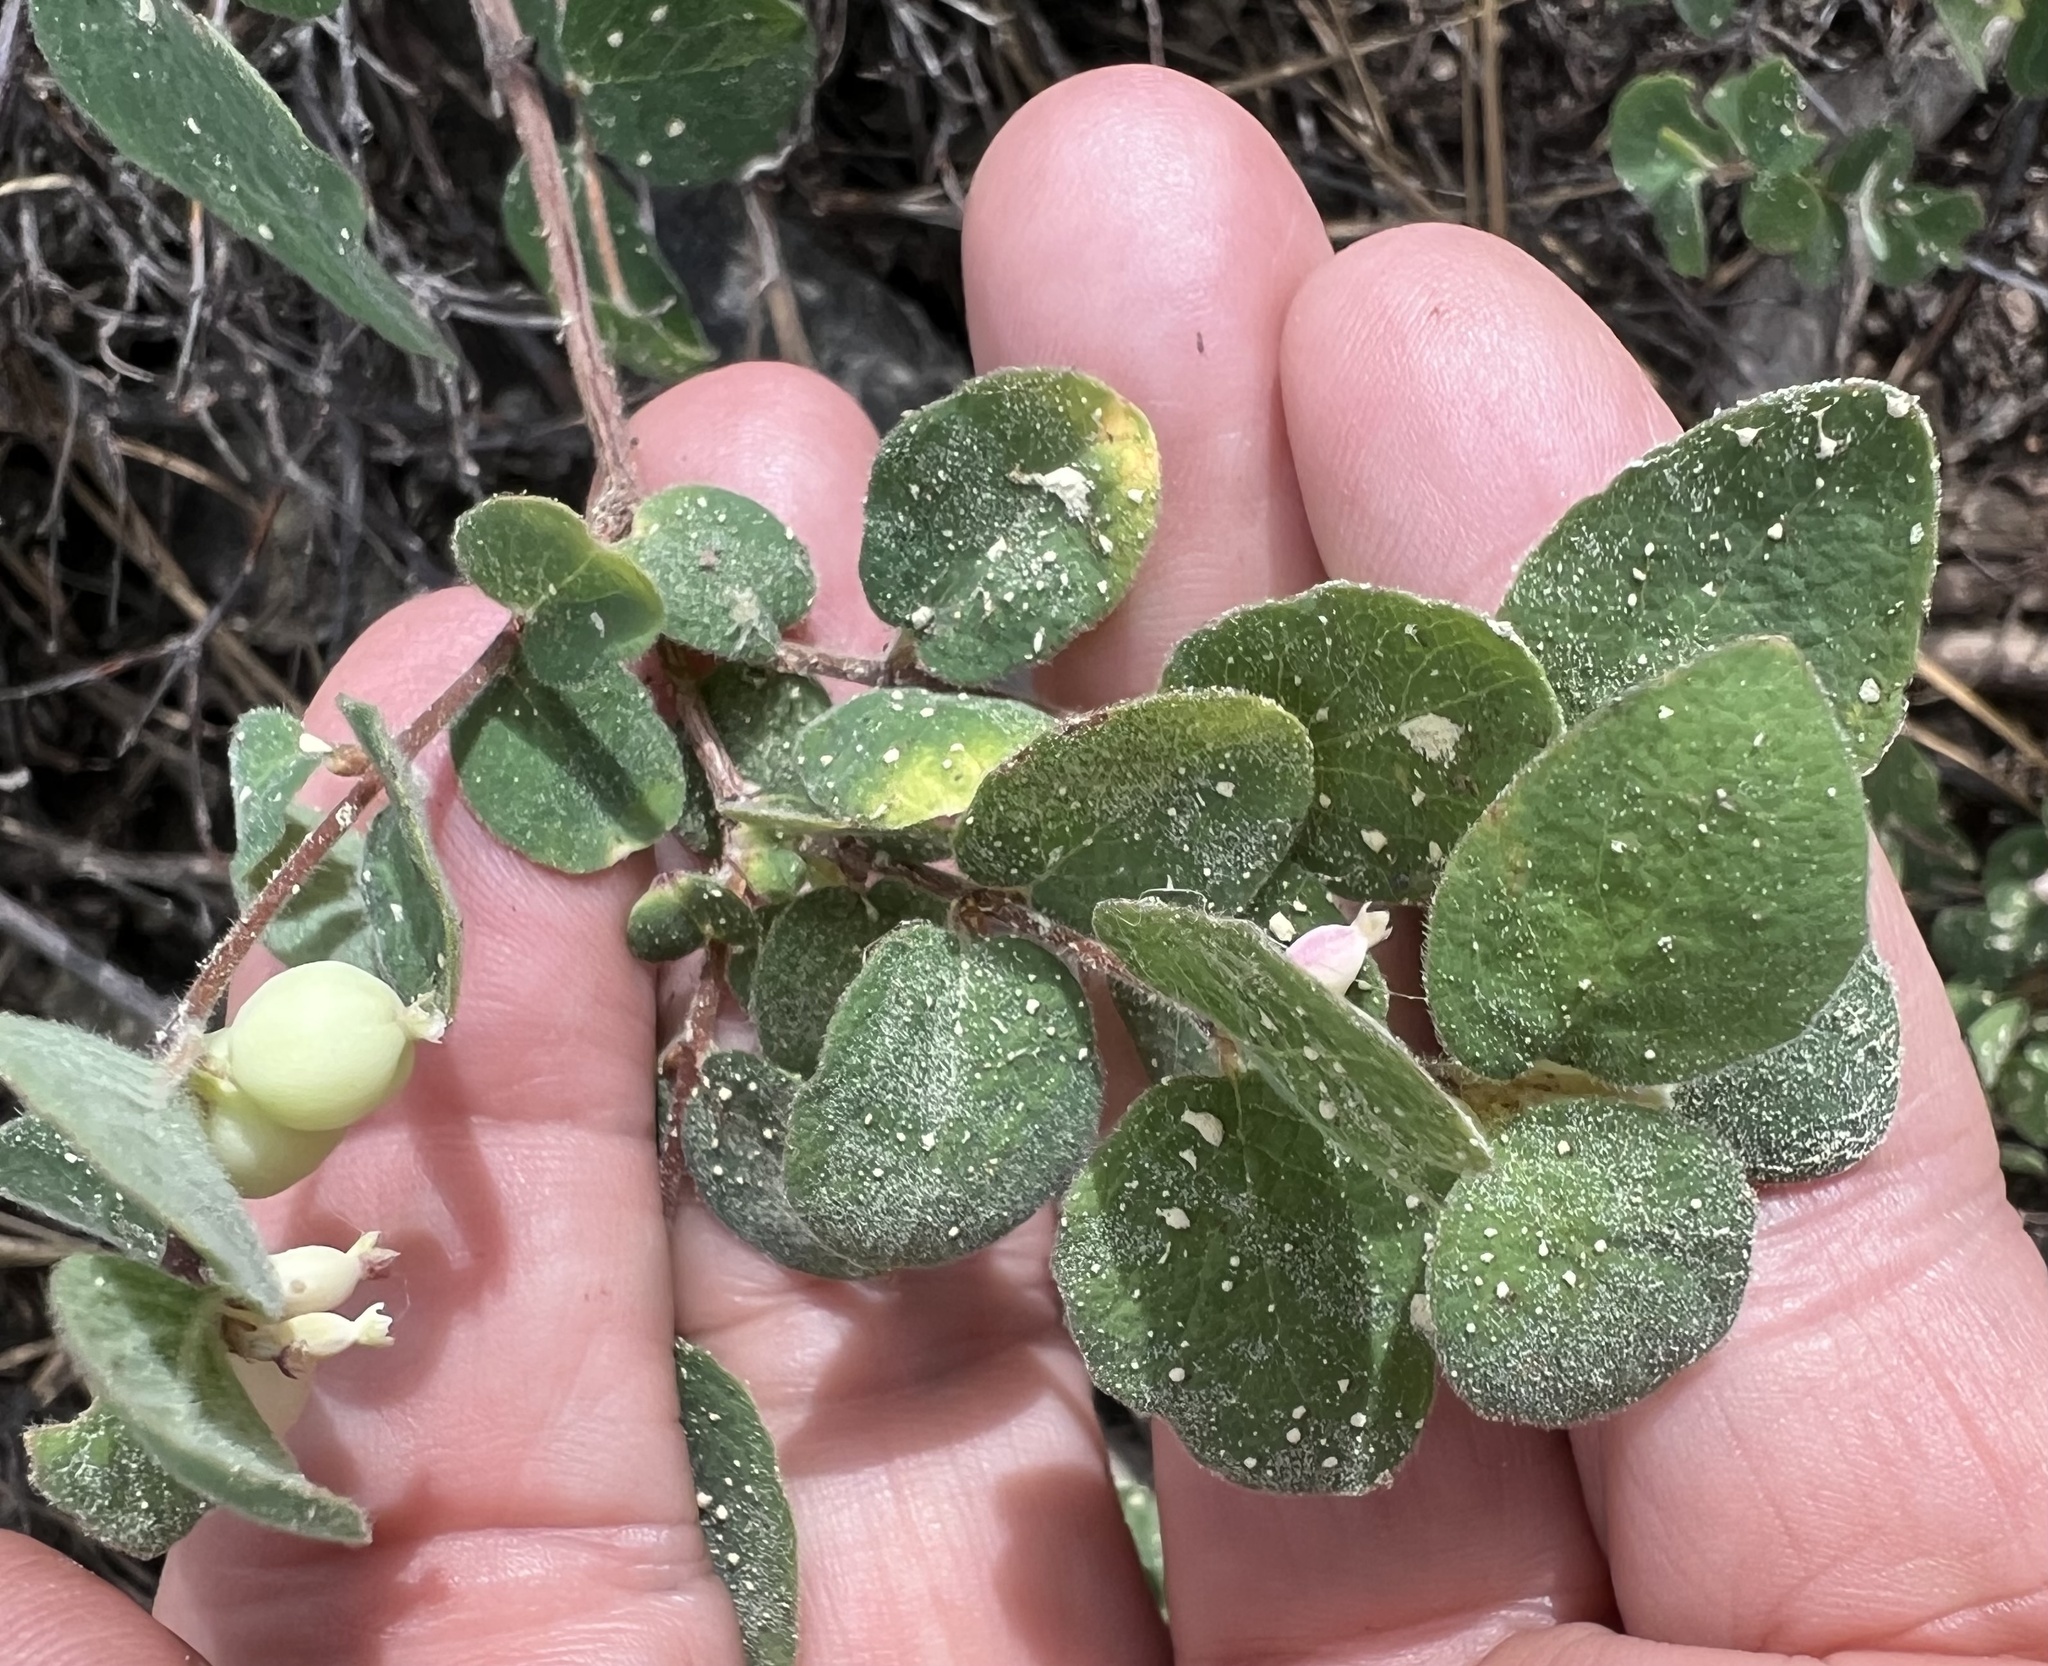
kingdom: Plantae
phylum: Tracheophyta
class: Magnoliopsida
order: Dipsacales
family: Caprifoliaceae
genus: Symphoricarpos
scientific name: Symphoricarpos mollis
